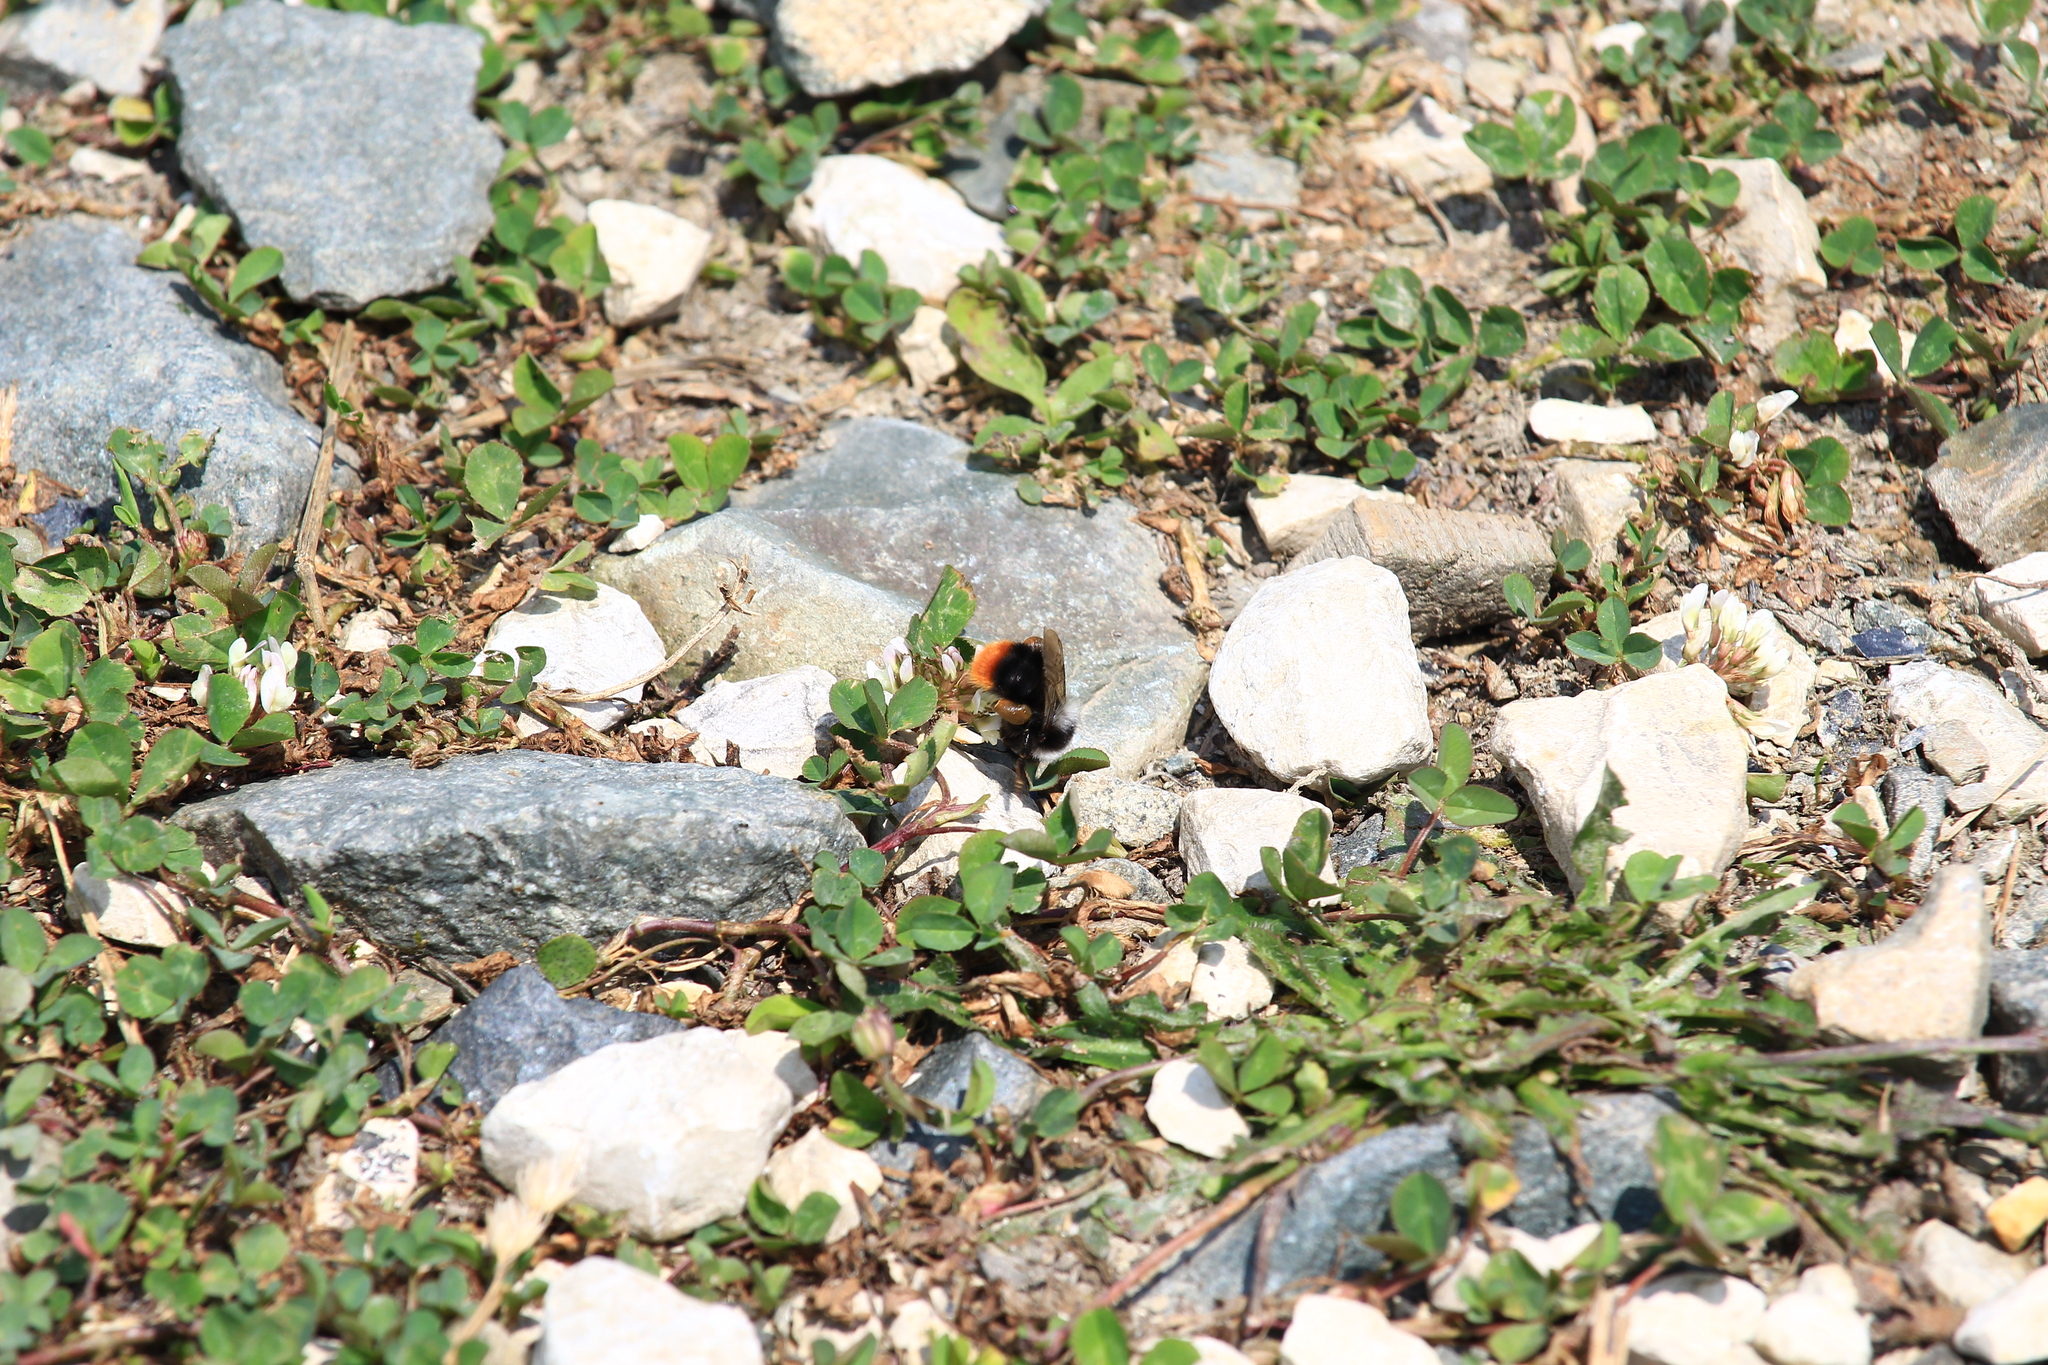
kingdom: Animalia
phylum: Arthropoda
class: Insecta
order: Hymenoptera
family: Apidae
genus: Bombus
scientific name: Bombus lapidarius
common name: Large red-tailed humble-bee
